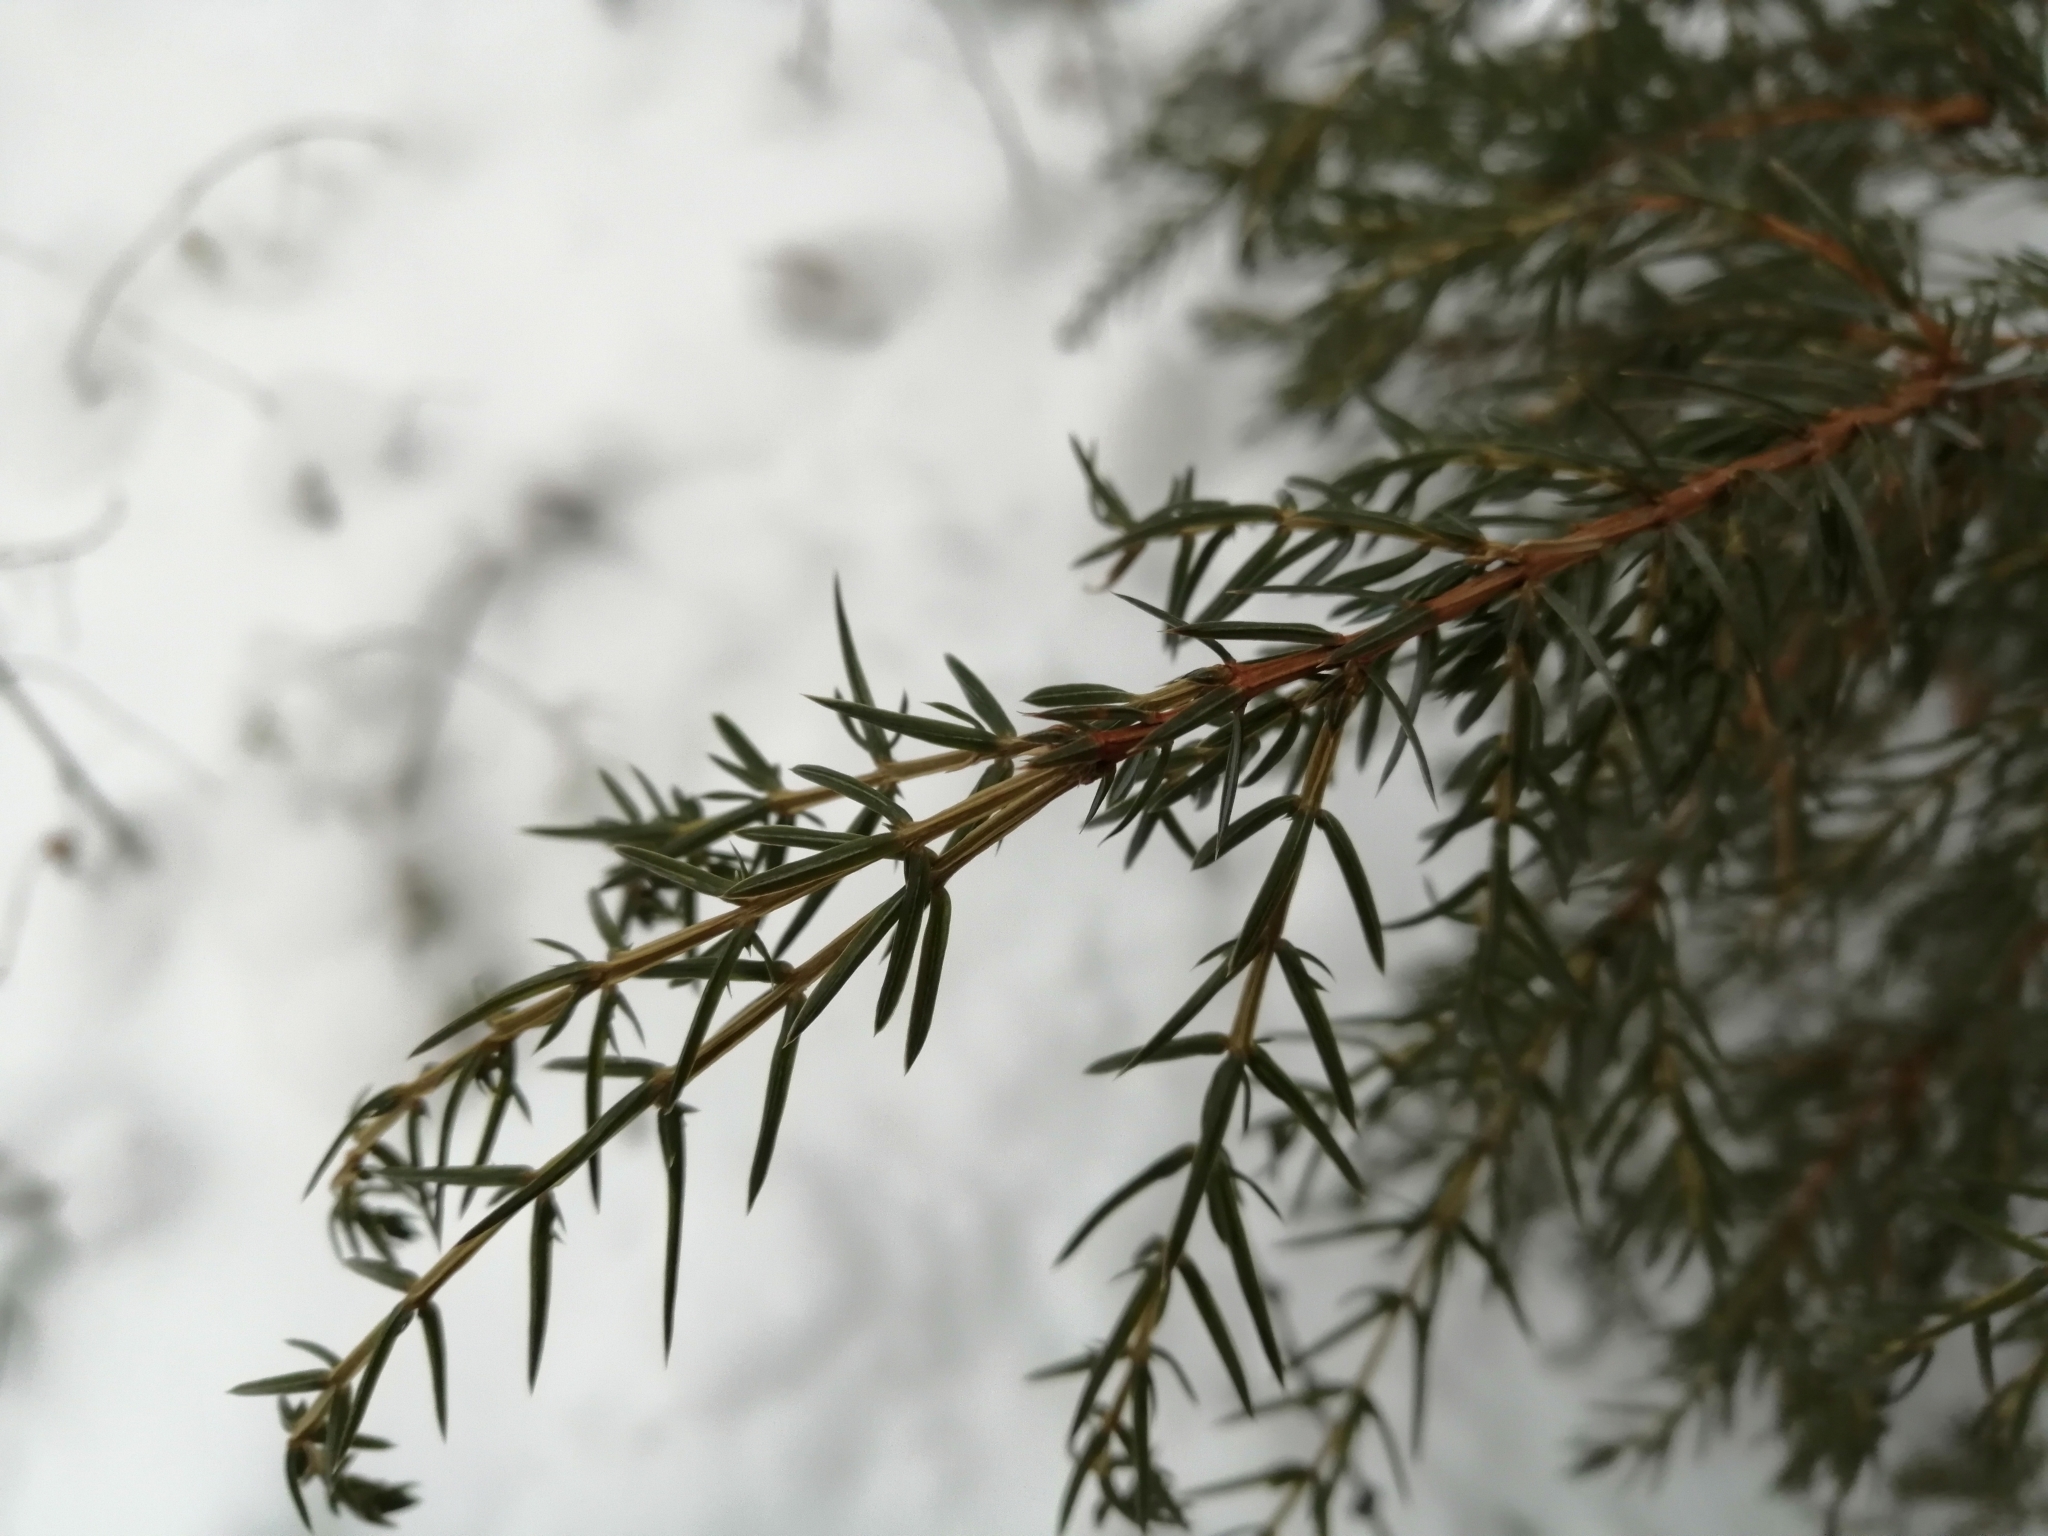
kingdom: Plantae
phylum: Tracheophyta
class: Pinopsida
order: Pinales
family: Cupressaceae
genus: Juniperus
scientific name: Juniperus communis
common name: Common juniper
